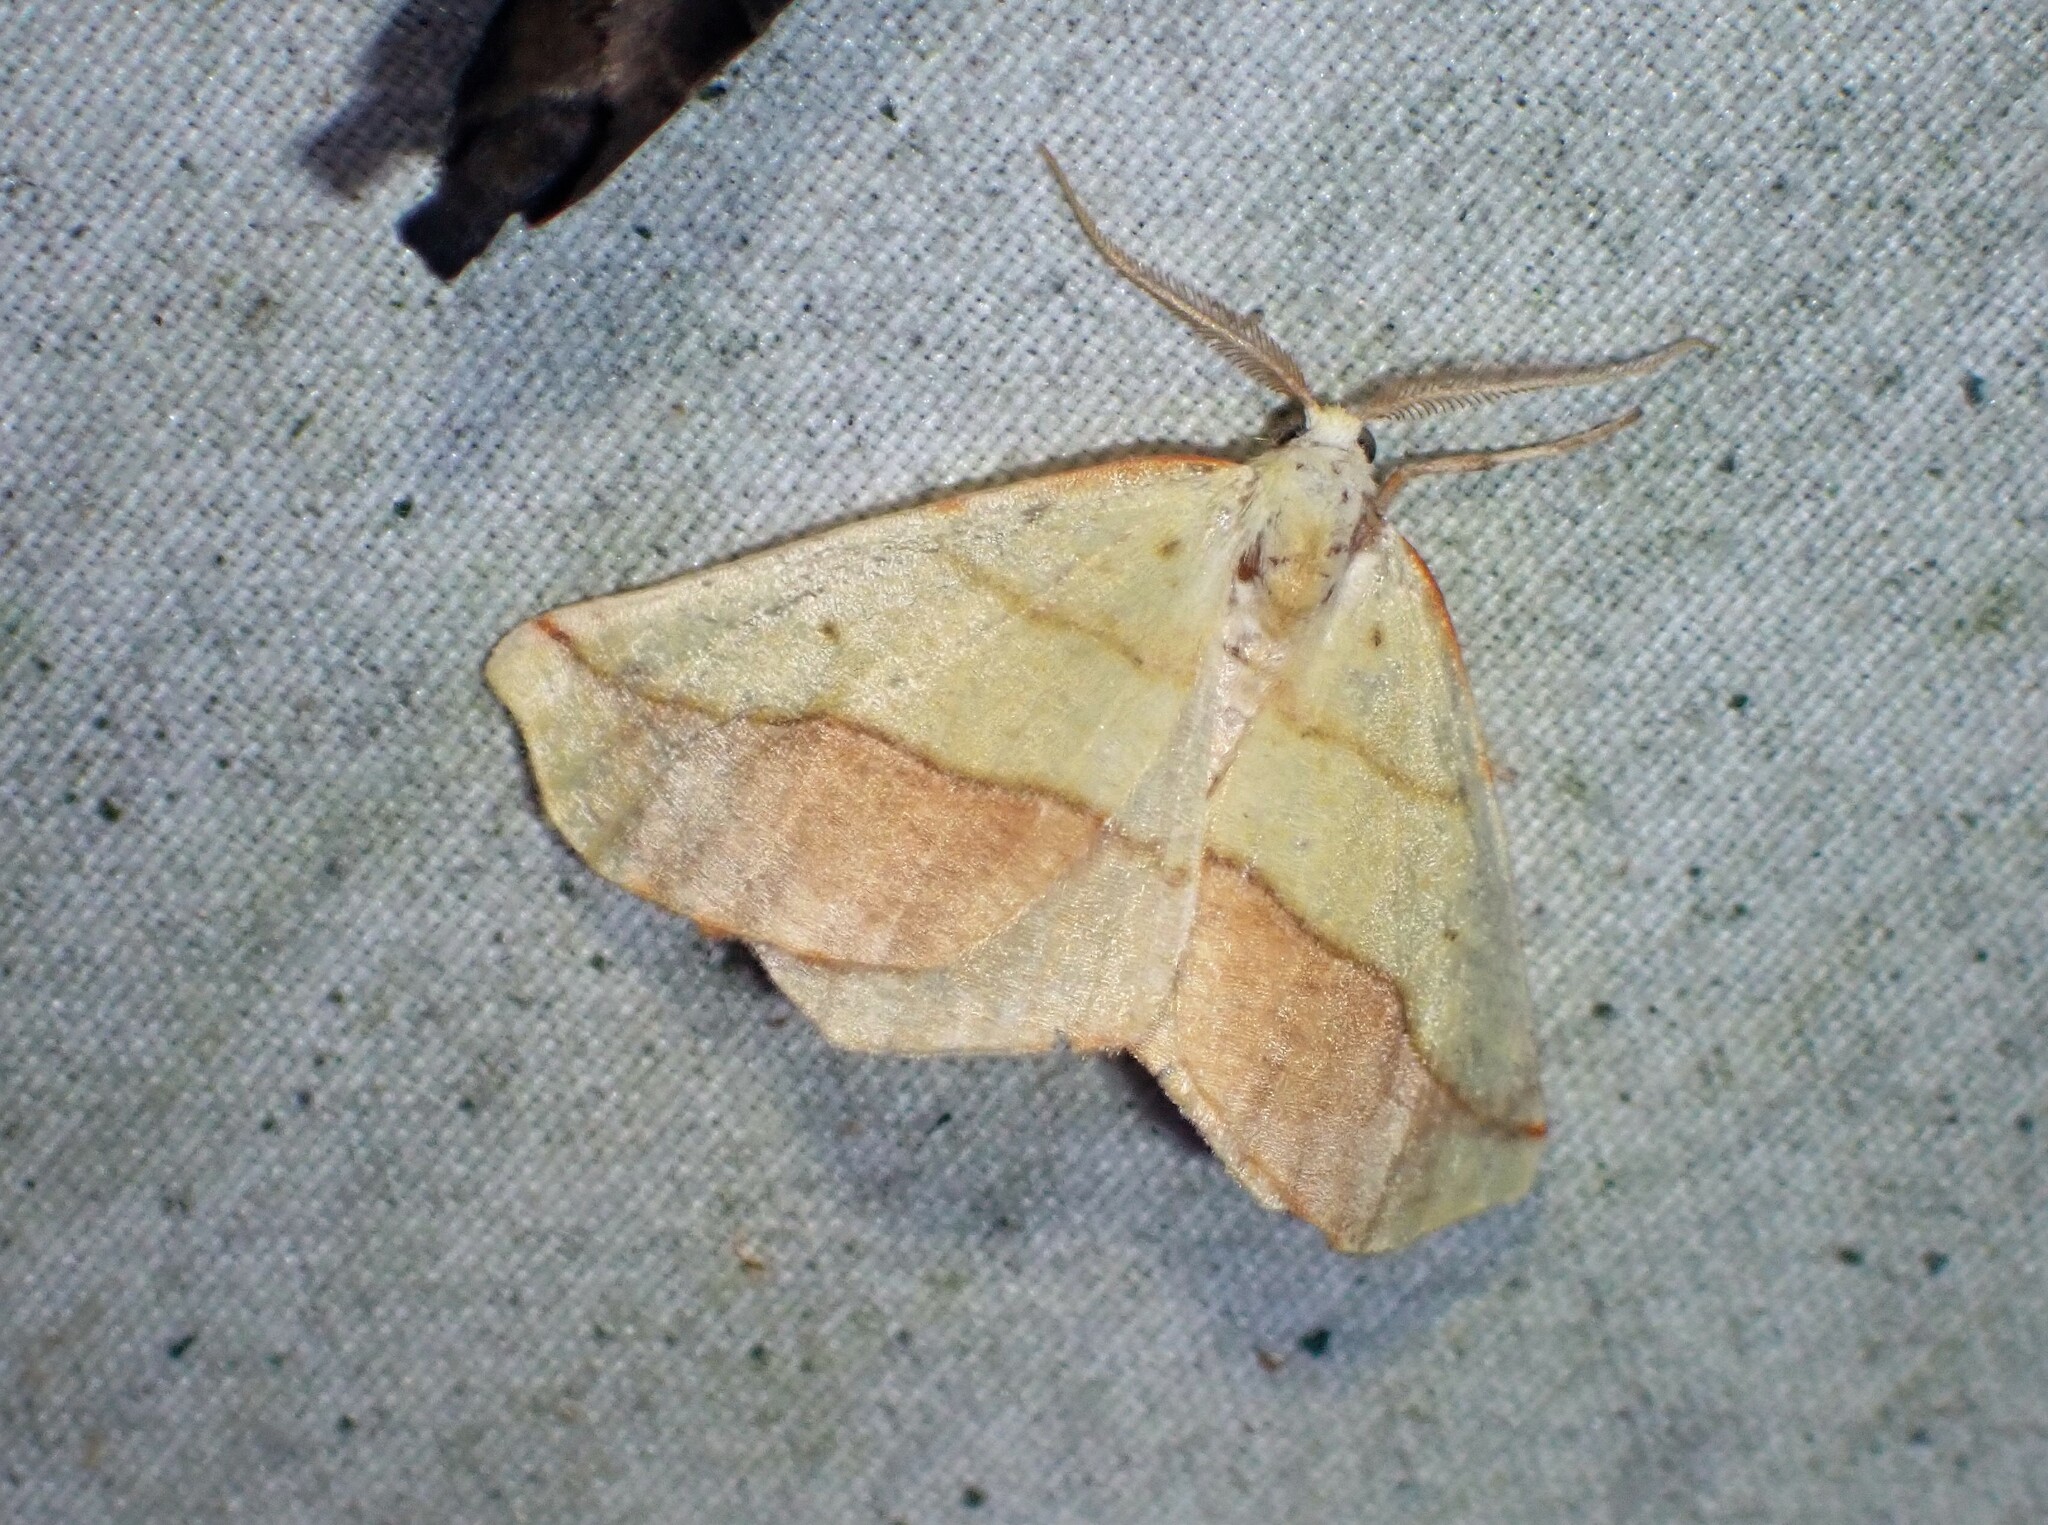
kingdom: Animalia
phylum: Arthropoda
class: Insecta
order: Lepidoptera
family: Geometridae
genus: Sicya
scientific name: Sicya macularia
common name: Sharp-lined yellow
